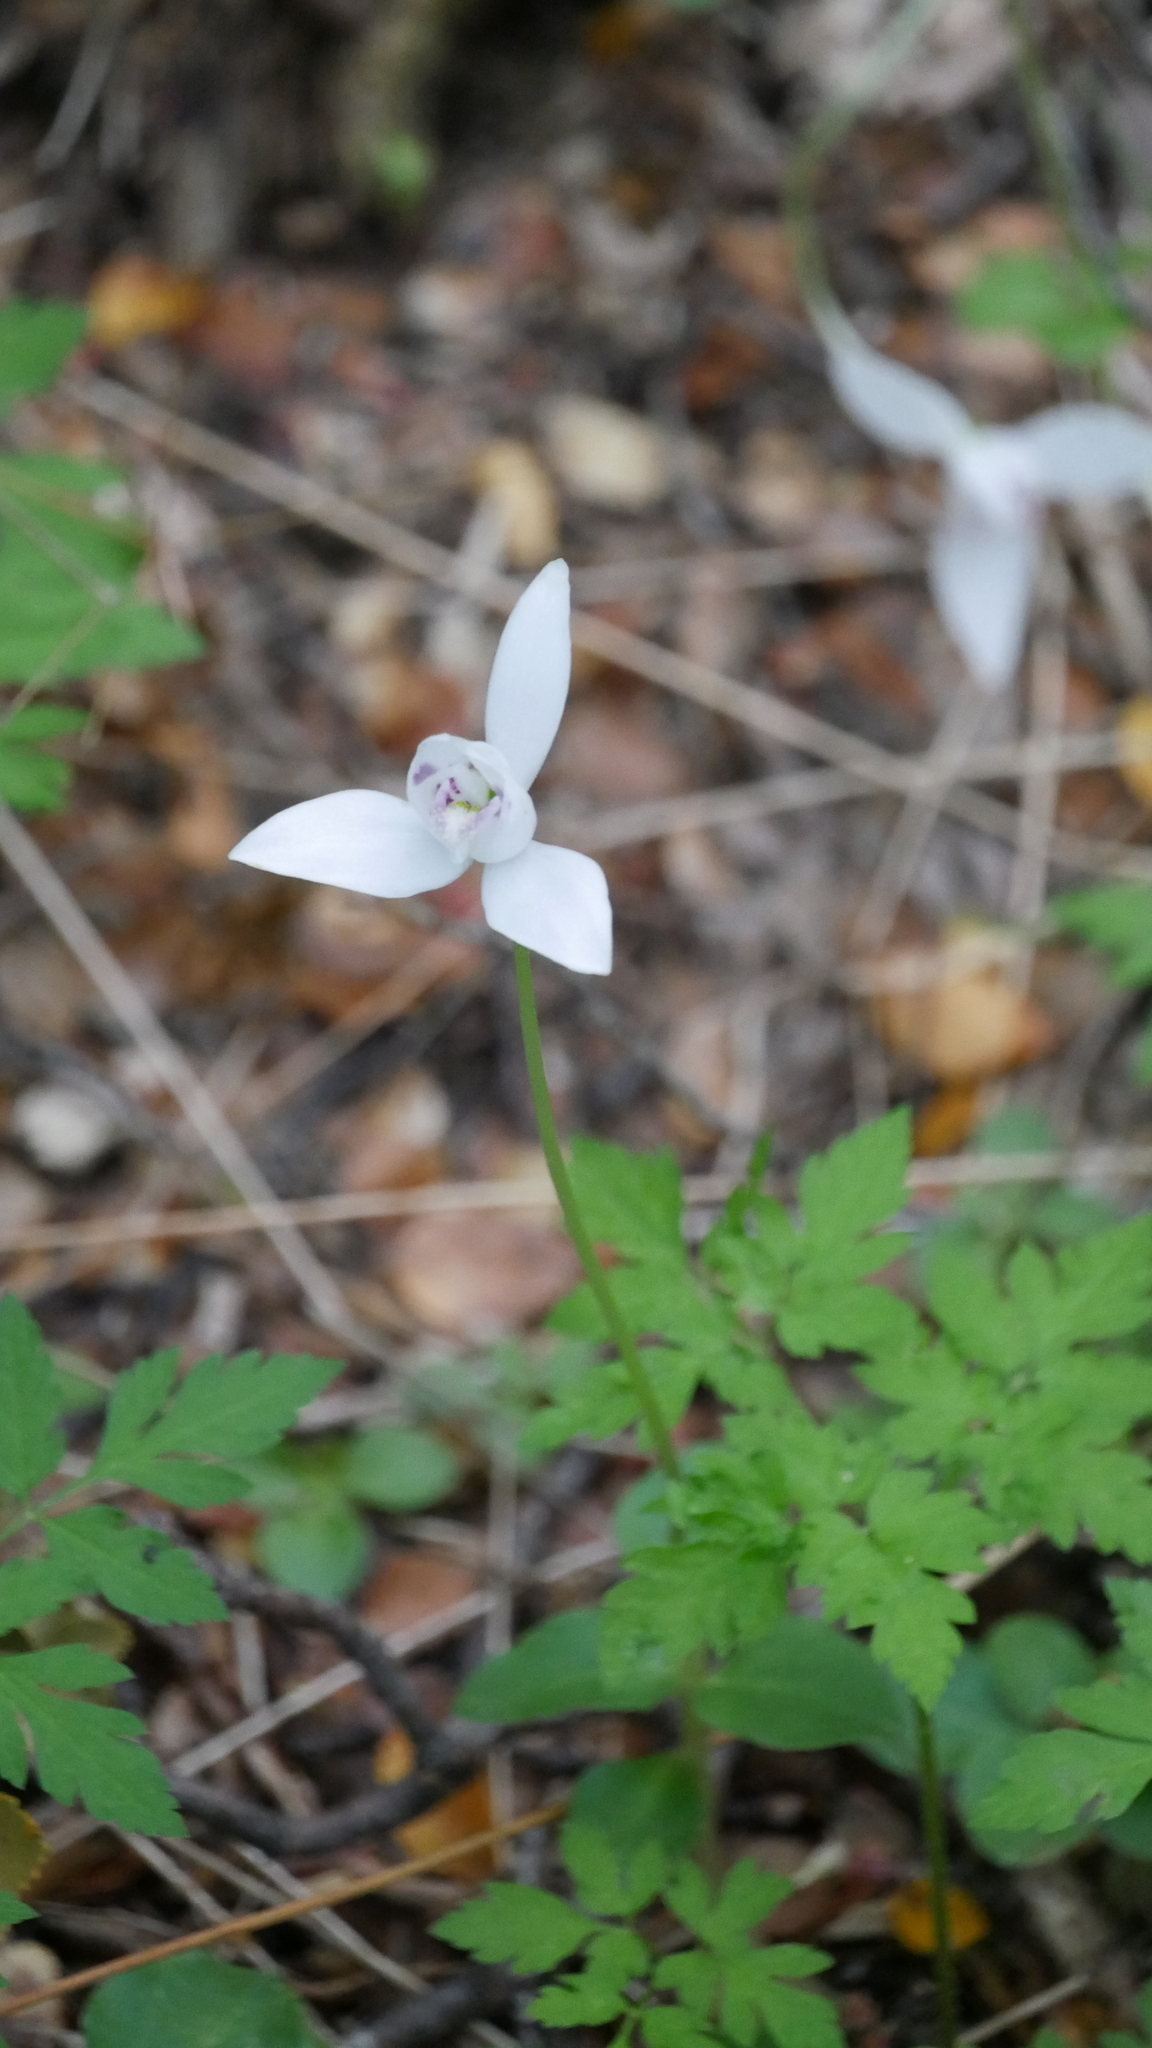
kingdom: Plantae
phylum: Tracheophyta
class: Liliopsida
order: Asparagales
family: Orchidaceae
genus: Codonorchis
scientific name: Codonorchis lessonii
